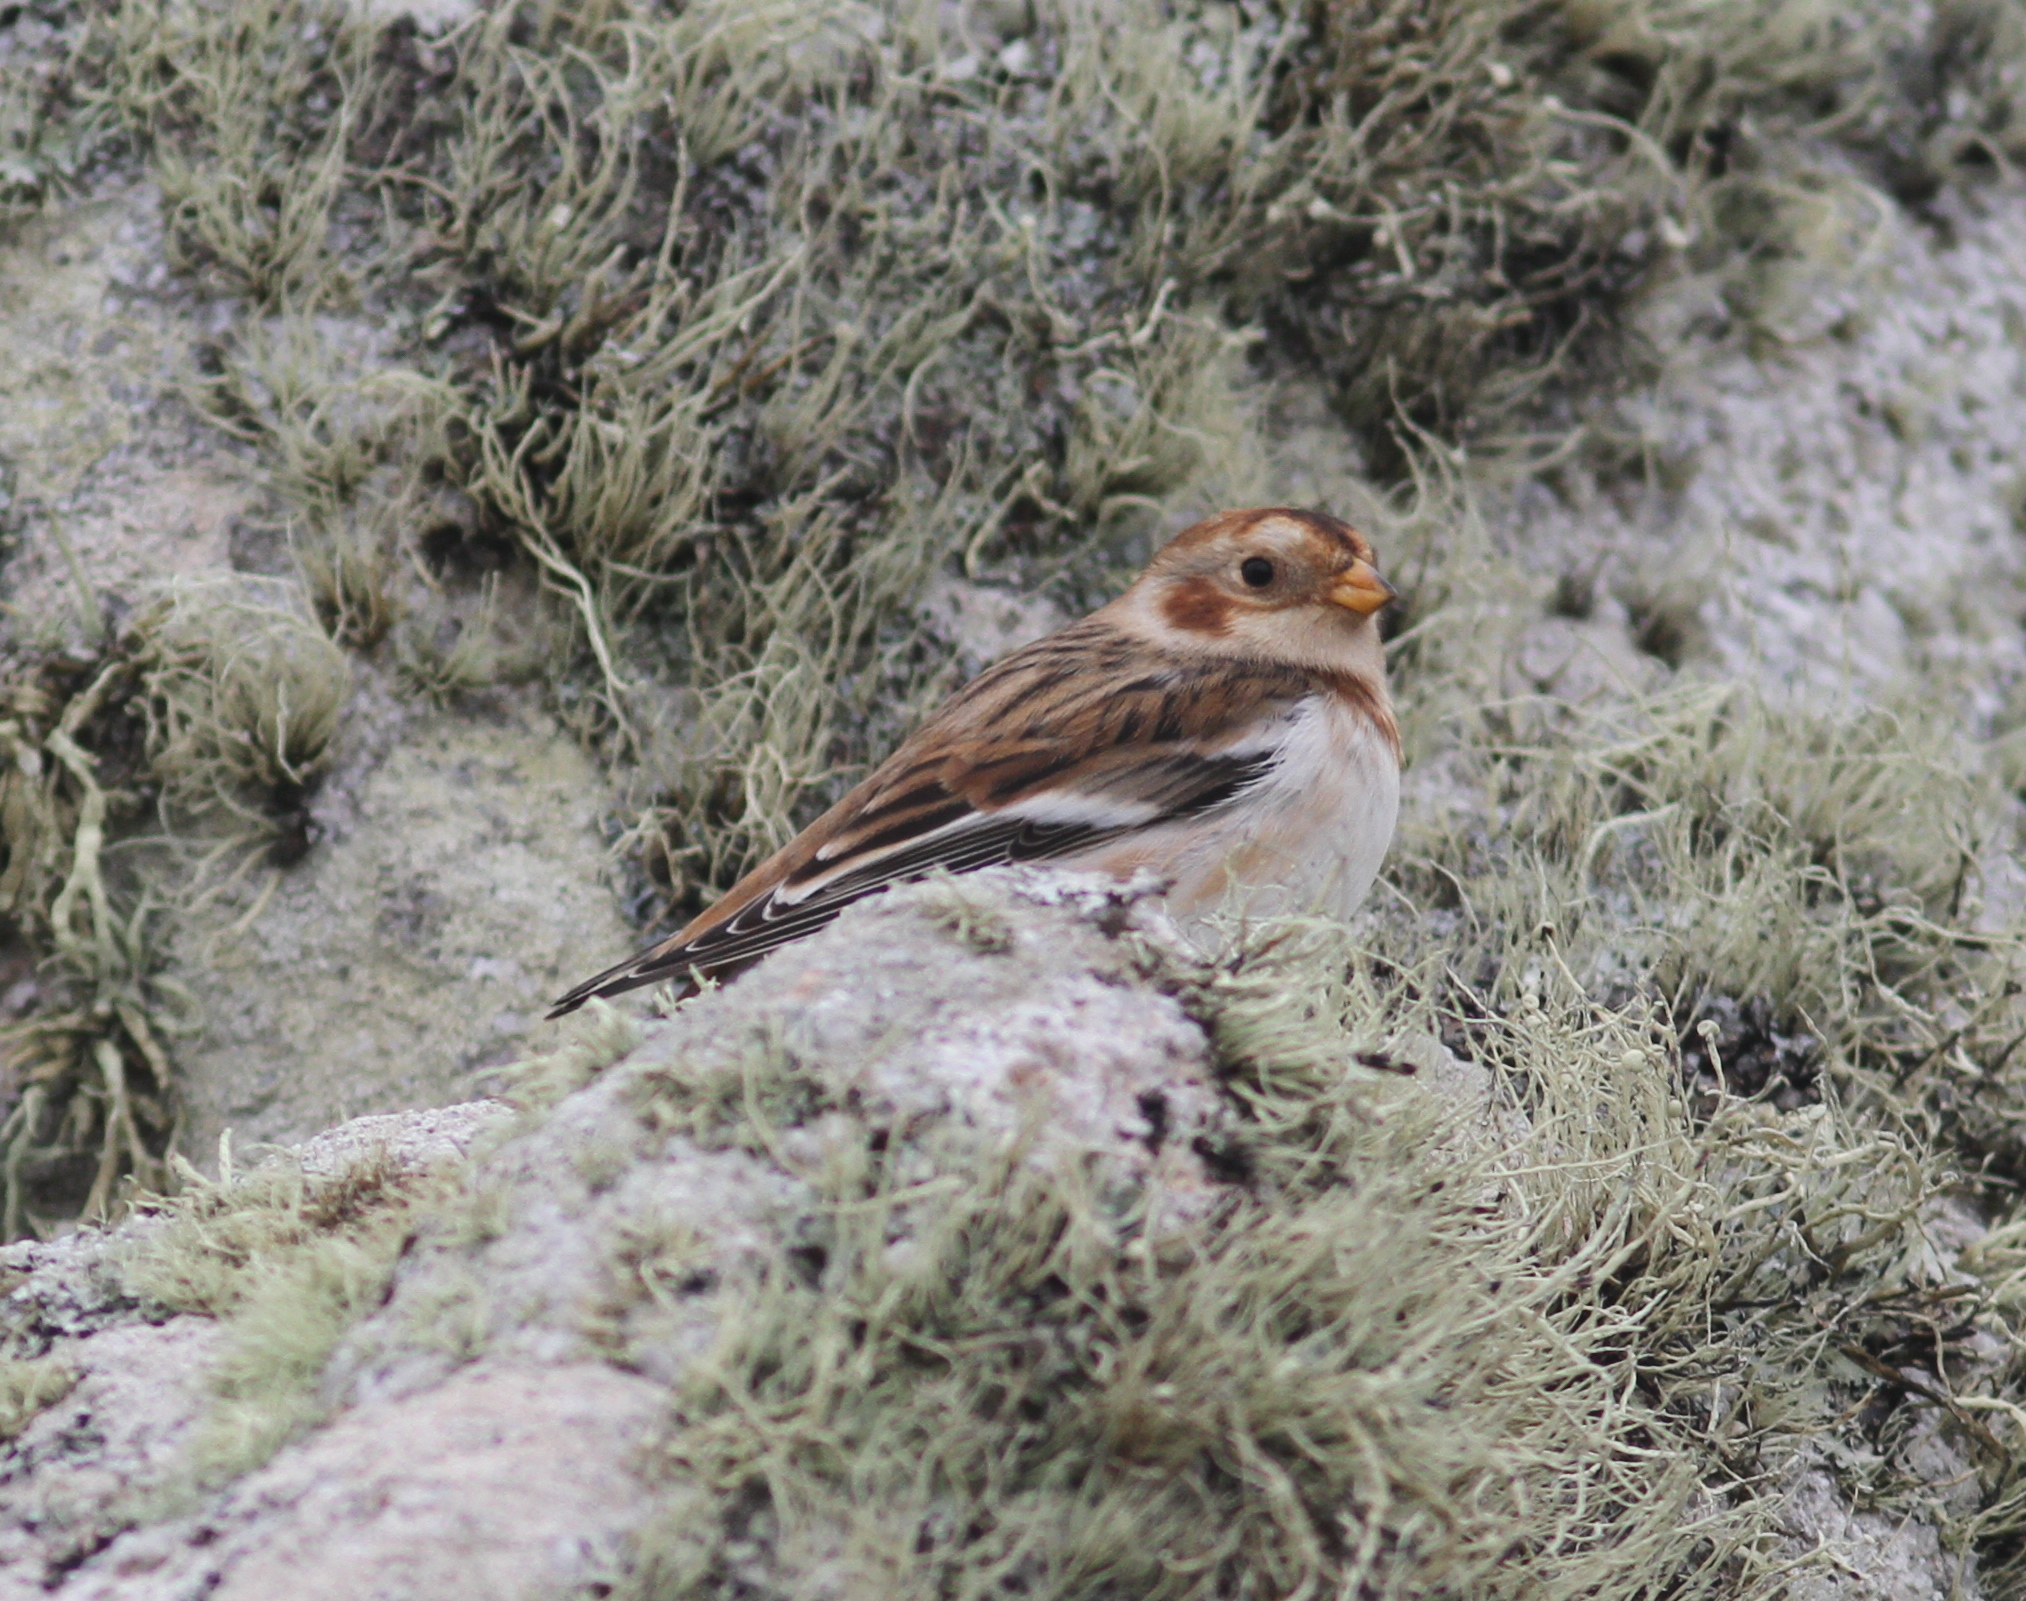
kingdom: Animalia
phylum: Chordata
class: Aves
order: Passeriformes
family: Calcariidae
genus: Plectrophenax
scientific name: Plectrophenax nivalis
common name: Snow bunting
